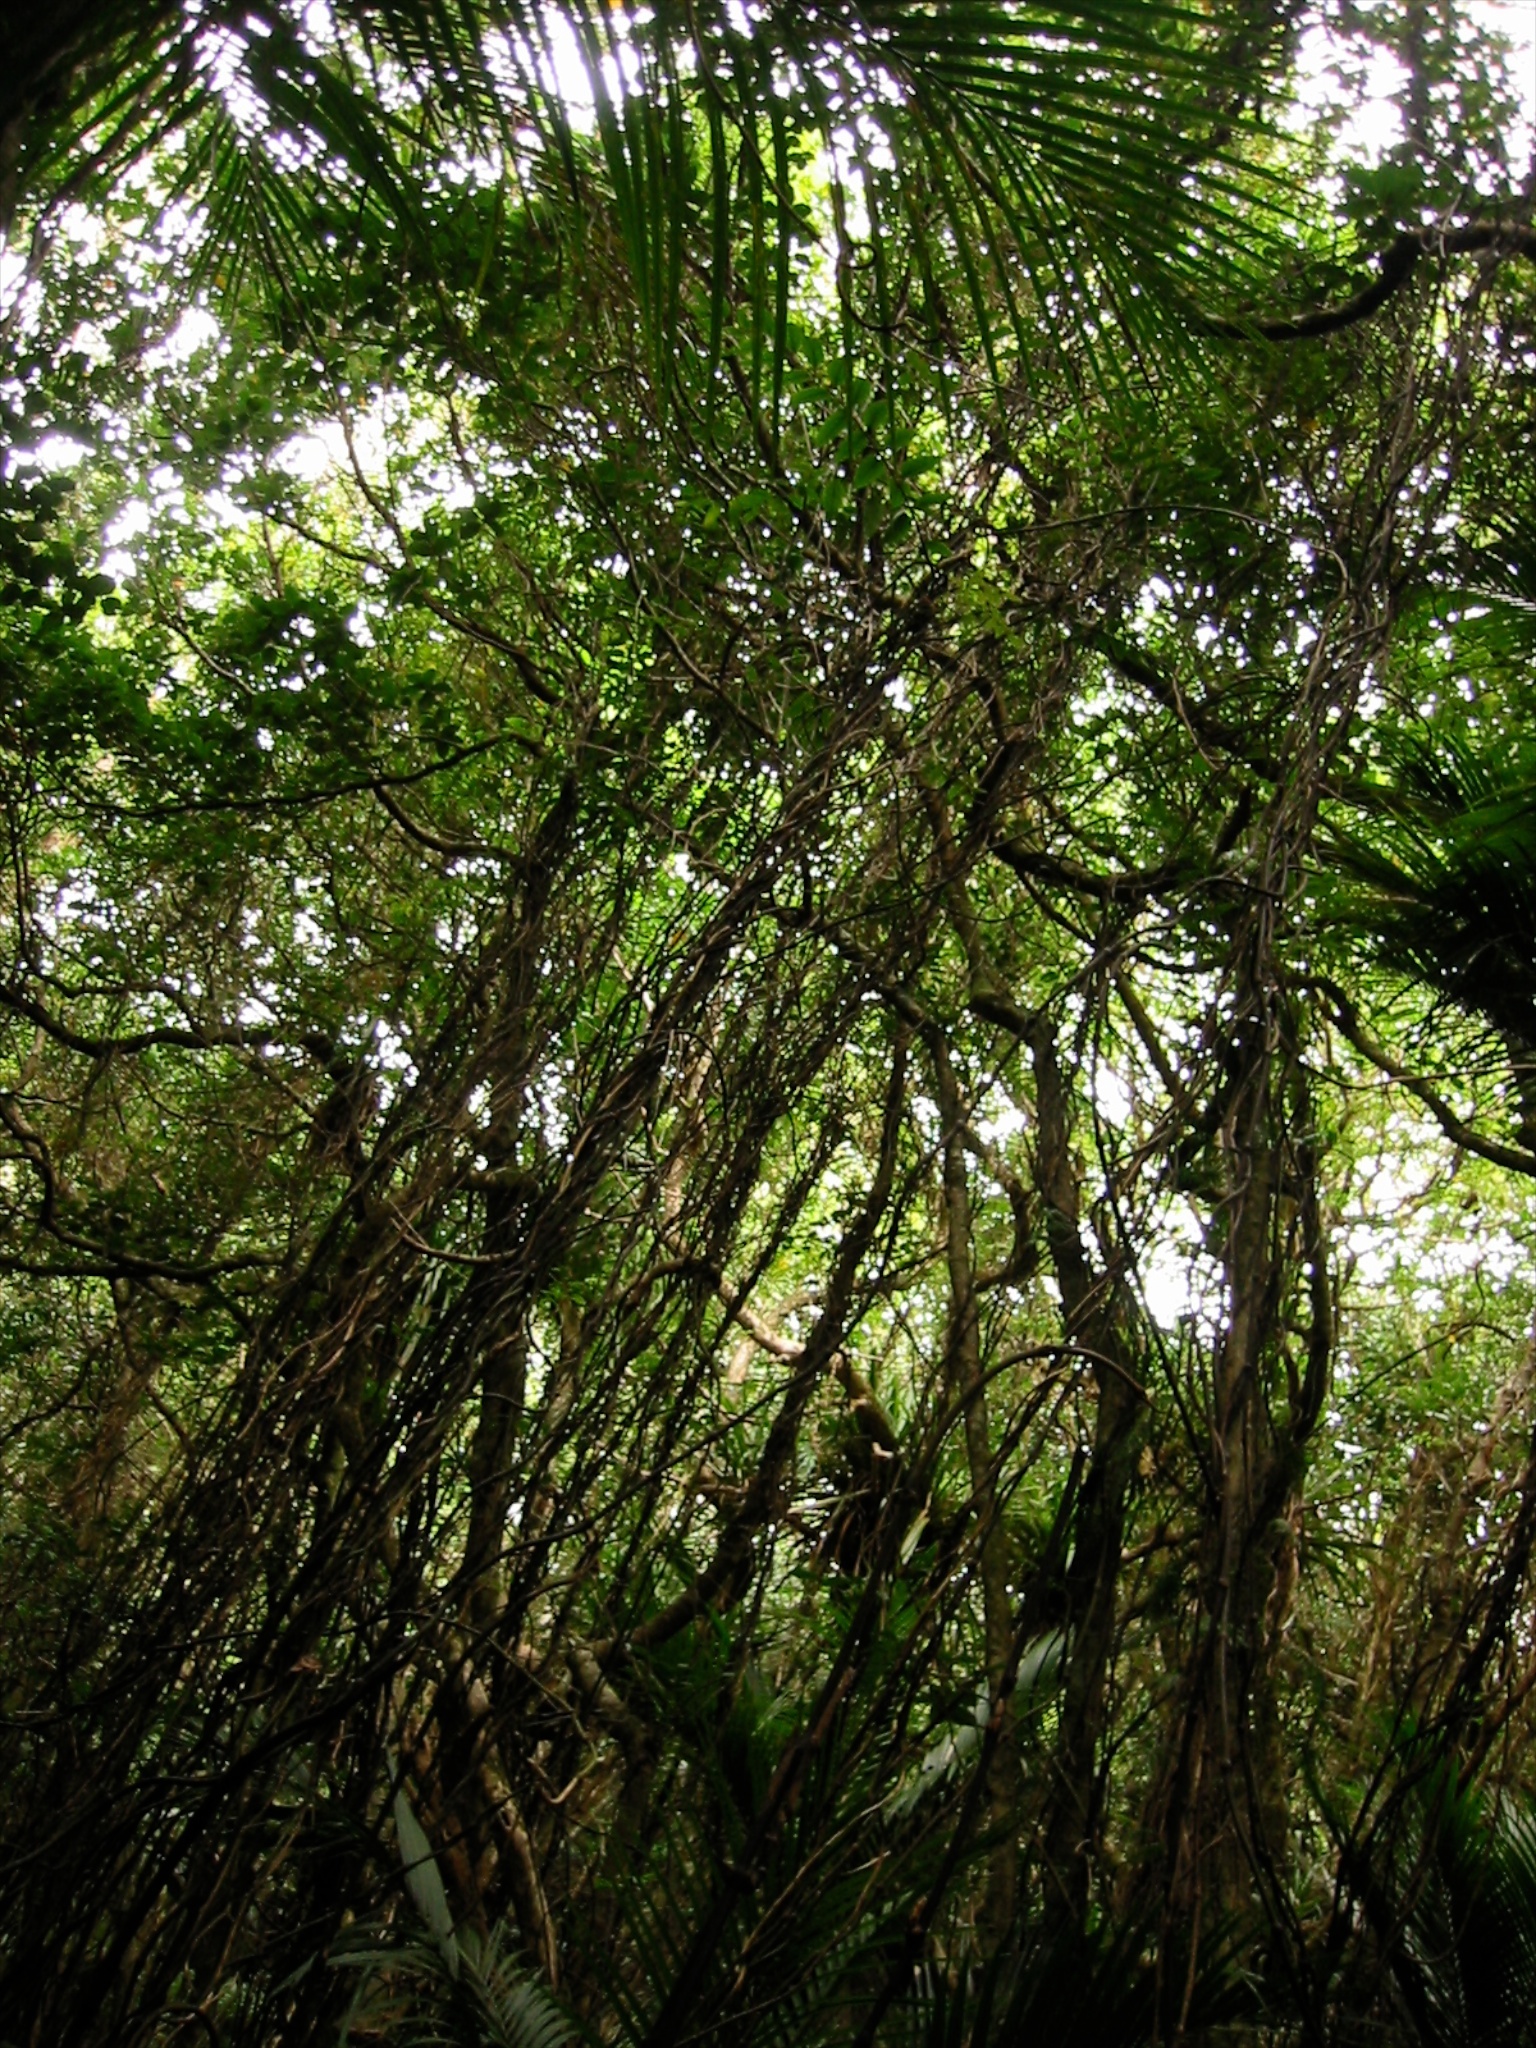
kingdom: Plantae
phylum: Tracheophyta
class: Liliopsida
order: Liliales
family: Ripogonaceae
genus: Ripogonum
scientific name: Ripogonum scandens
